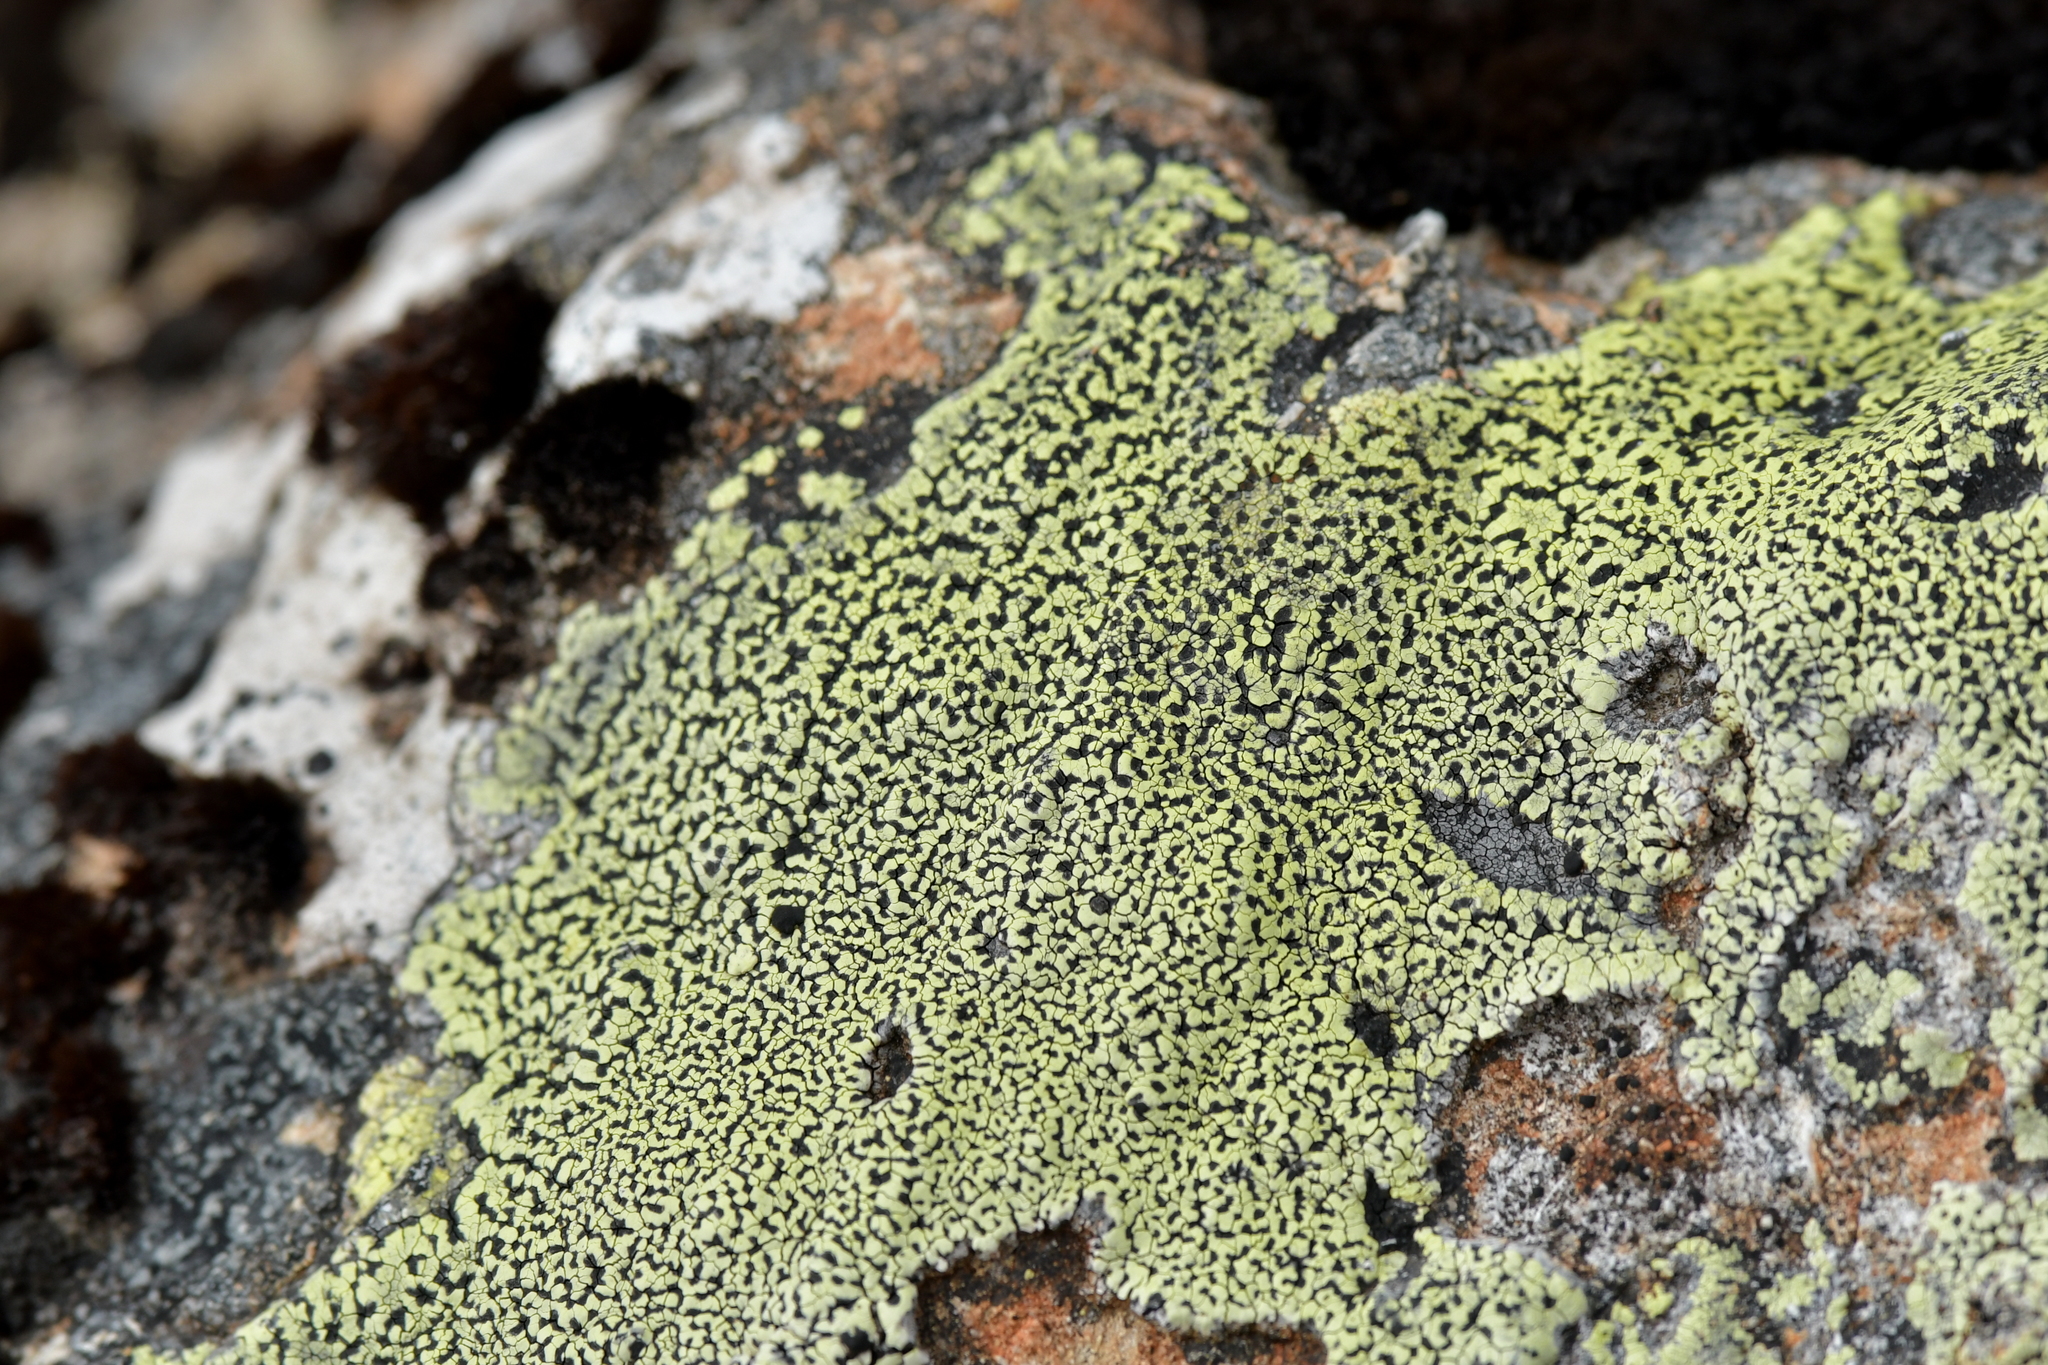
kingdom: Fungi
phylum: Ascomycota
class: Lecanoromycetes
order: Rhizocarpales
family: Rhizocarpaceae
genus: Rhizocarpon
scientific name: Rhizocarpon geographicum
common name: Yellow map lichen
